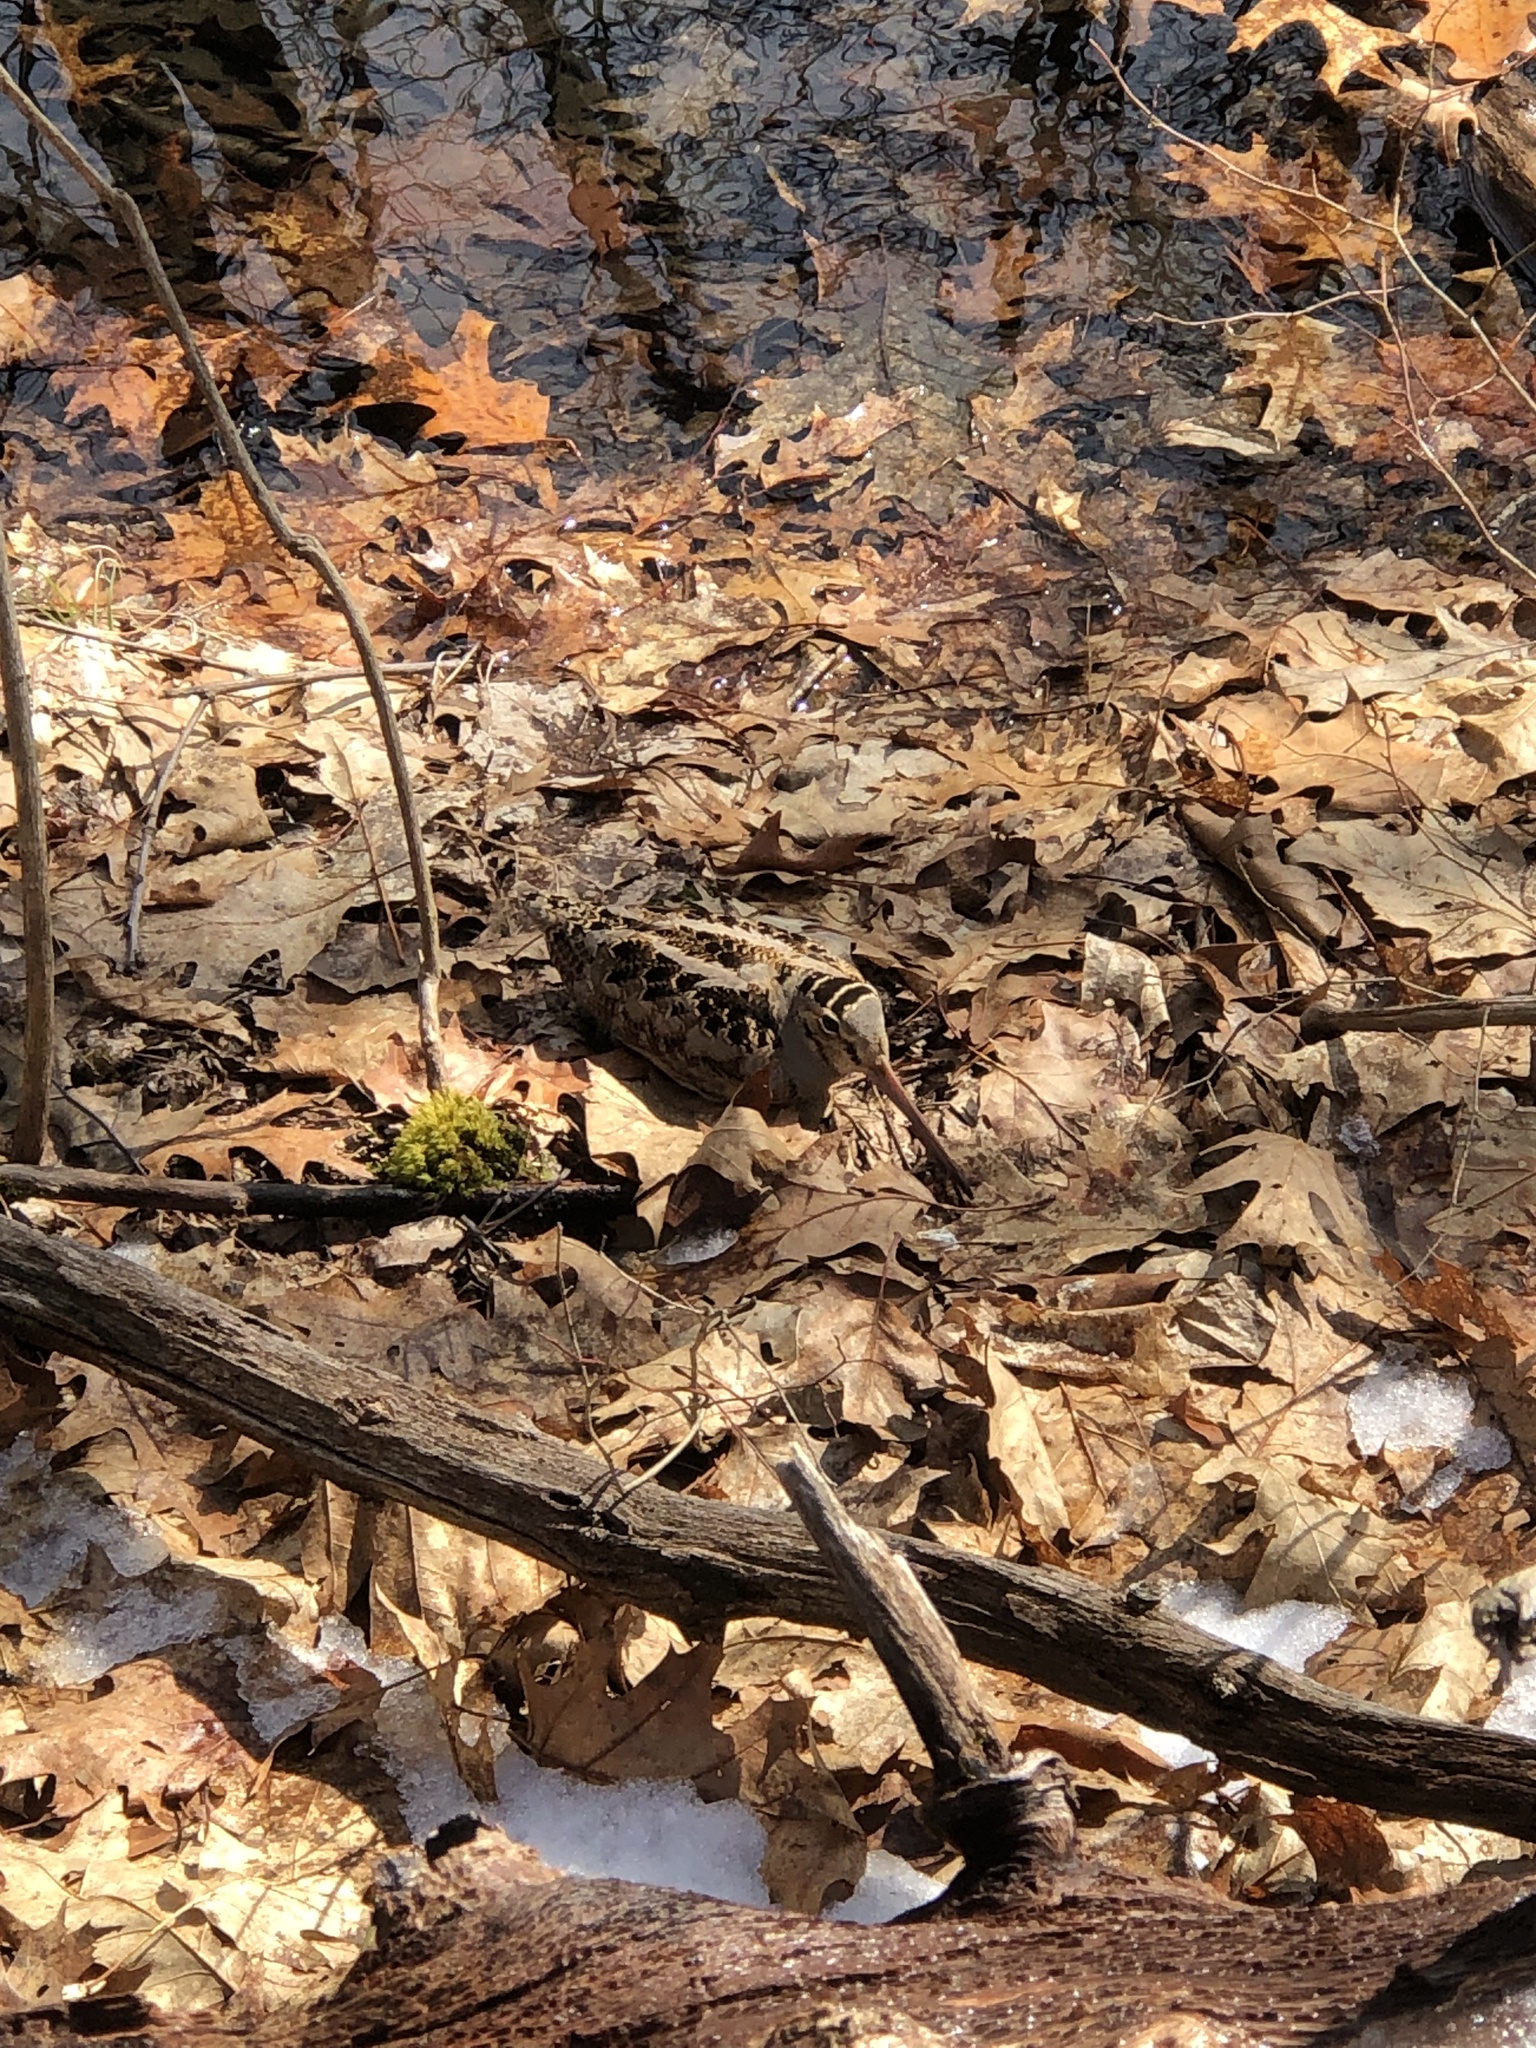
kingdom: Animalia
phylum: Chordata
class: Aves
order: Charadriiformes
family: Scolopacidae
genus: Scolopax
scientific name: Scolopax minor
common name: American woodcock
